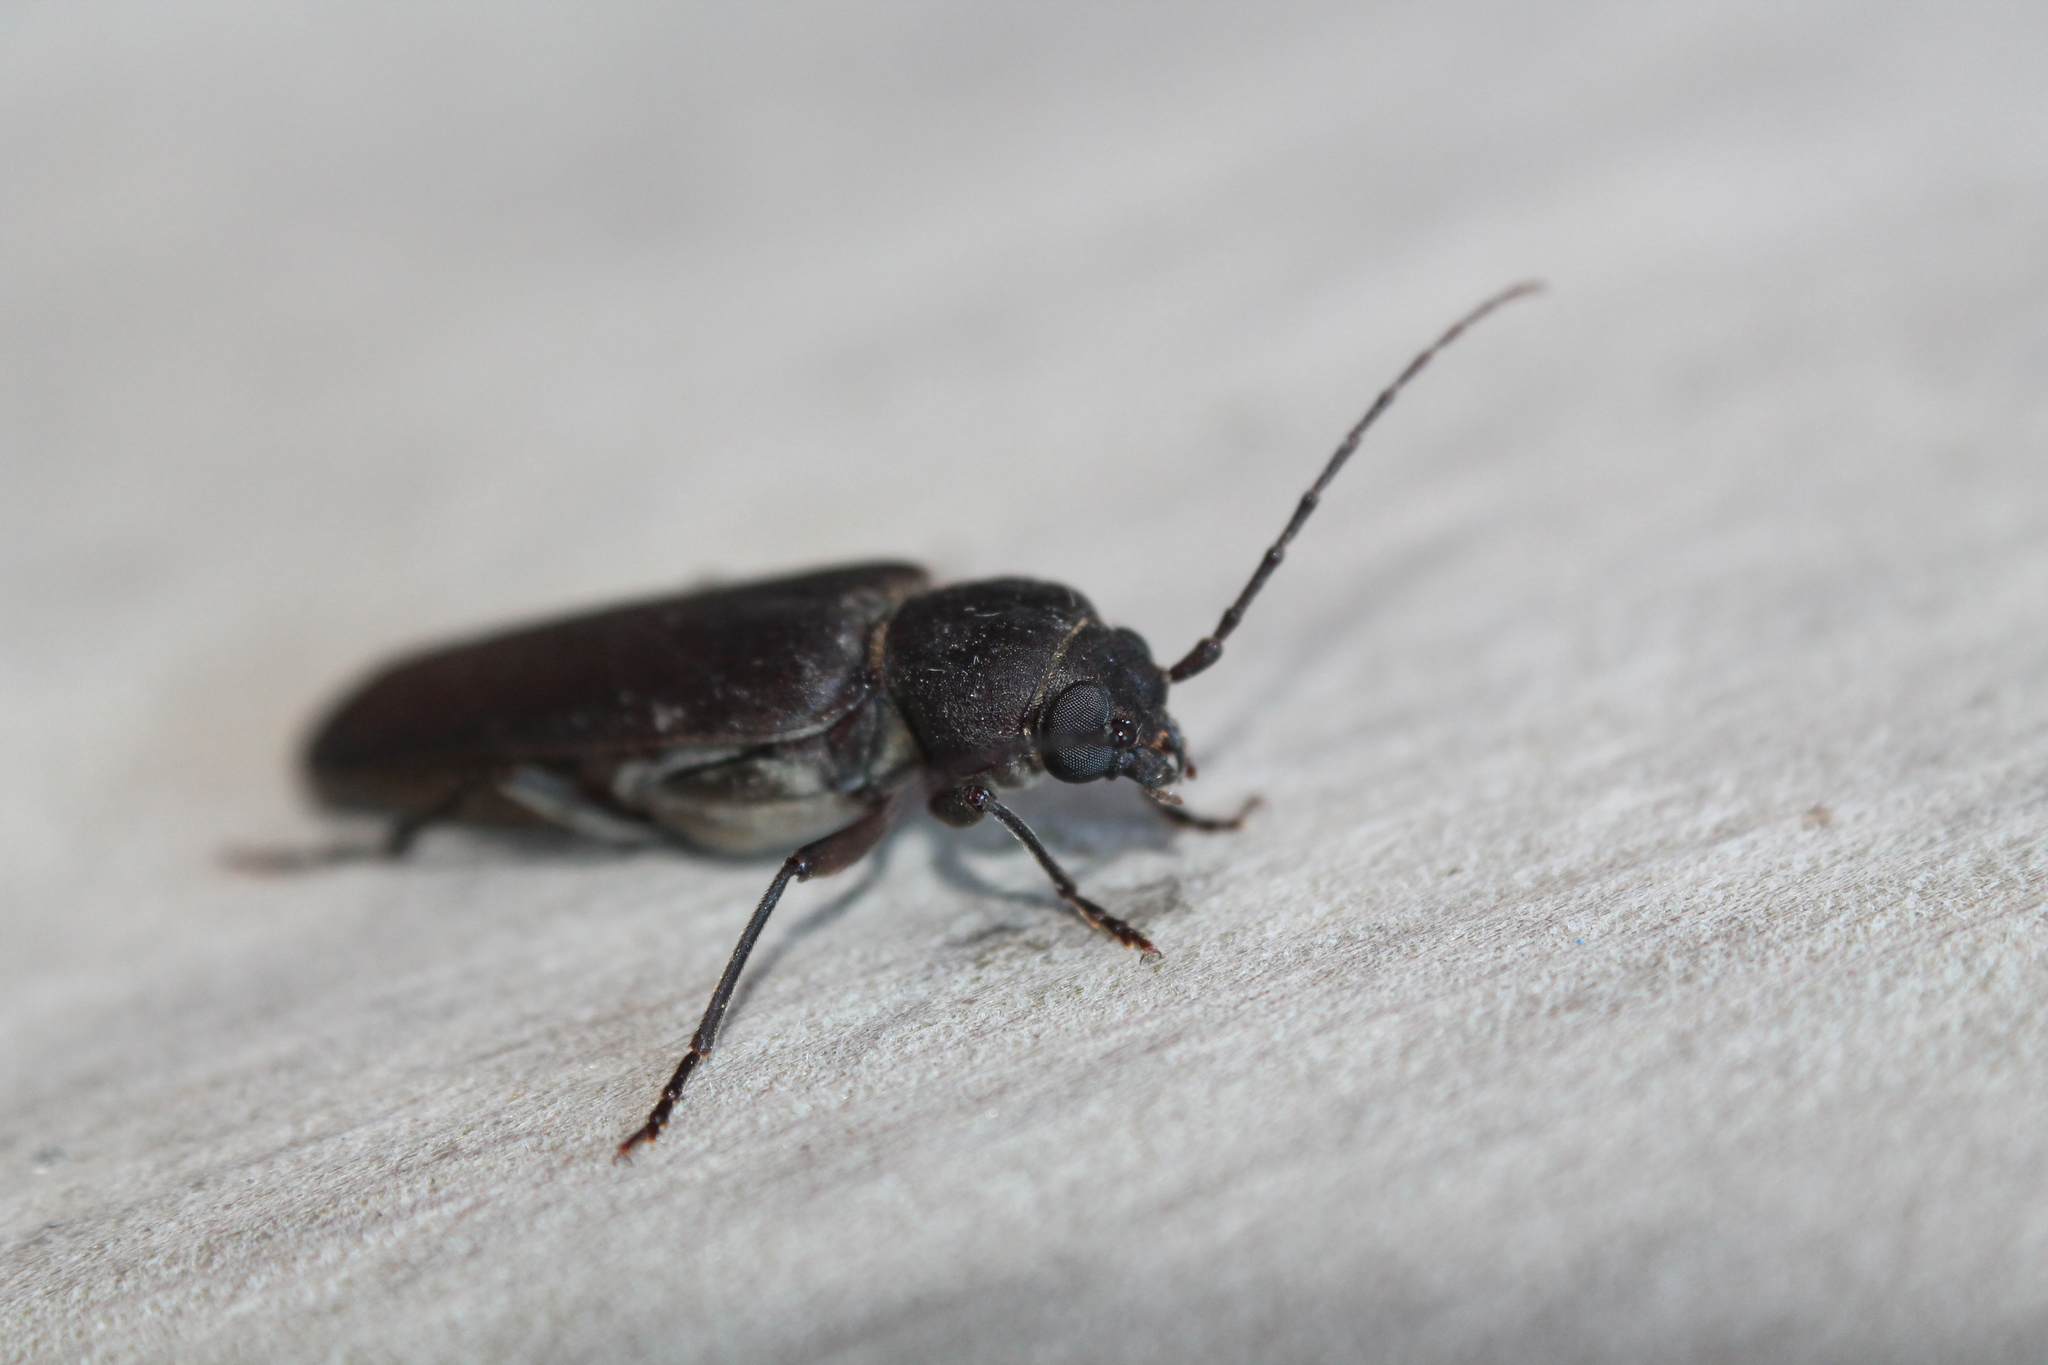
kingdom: Animalia
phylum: Arthropoda
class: Insecta
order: Coleoptera
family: Cerambycidae
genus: Arhopalus
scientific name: Arhopalus ferus
